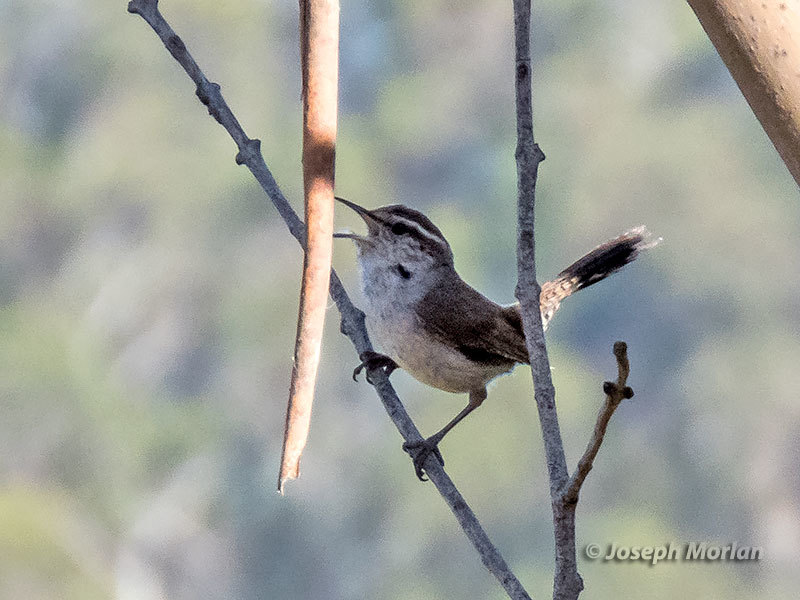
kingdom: Animalia
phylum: Chordata
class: Aves
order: Passeriformes
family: Troglodytidae
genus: Thryomanes
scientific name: Thryomanes bewickii
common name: Bewick's wren
